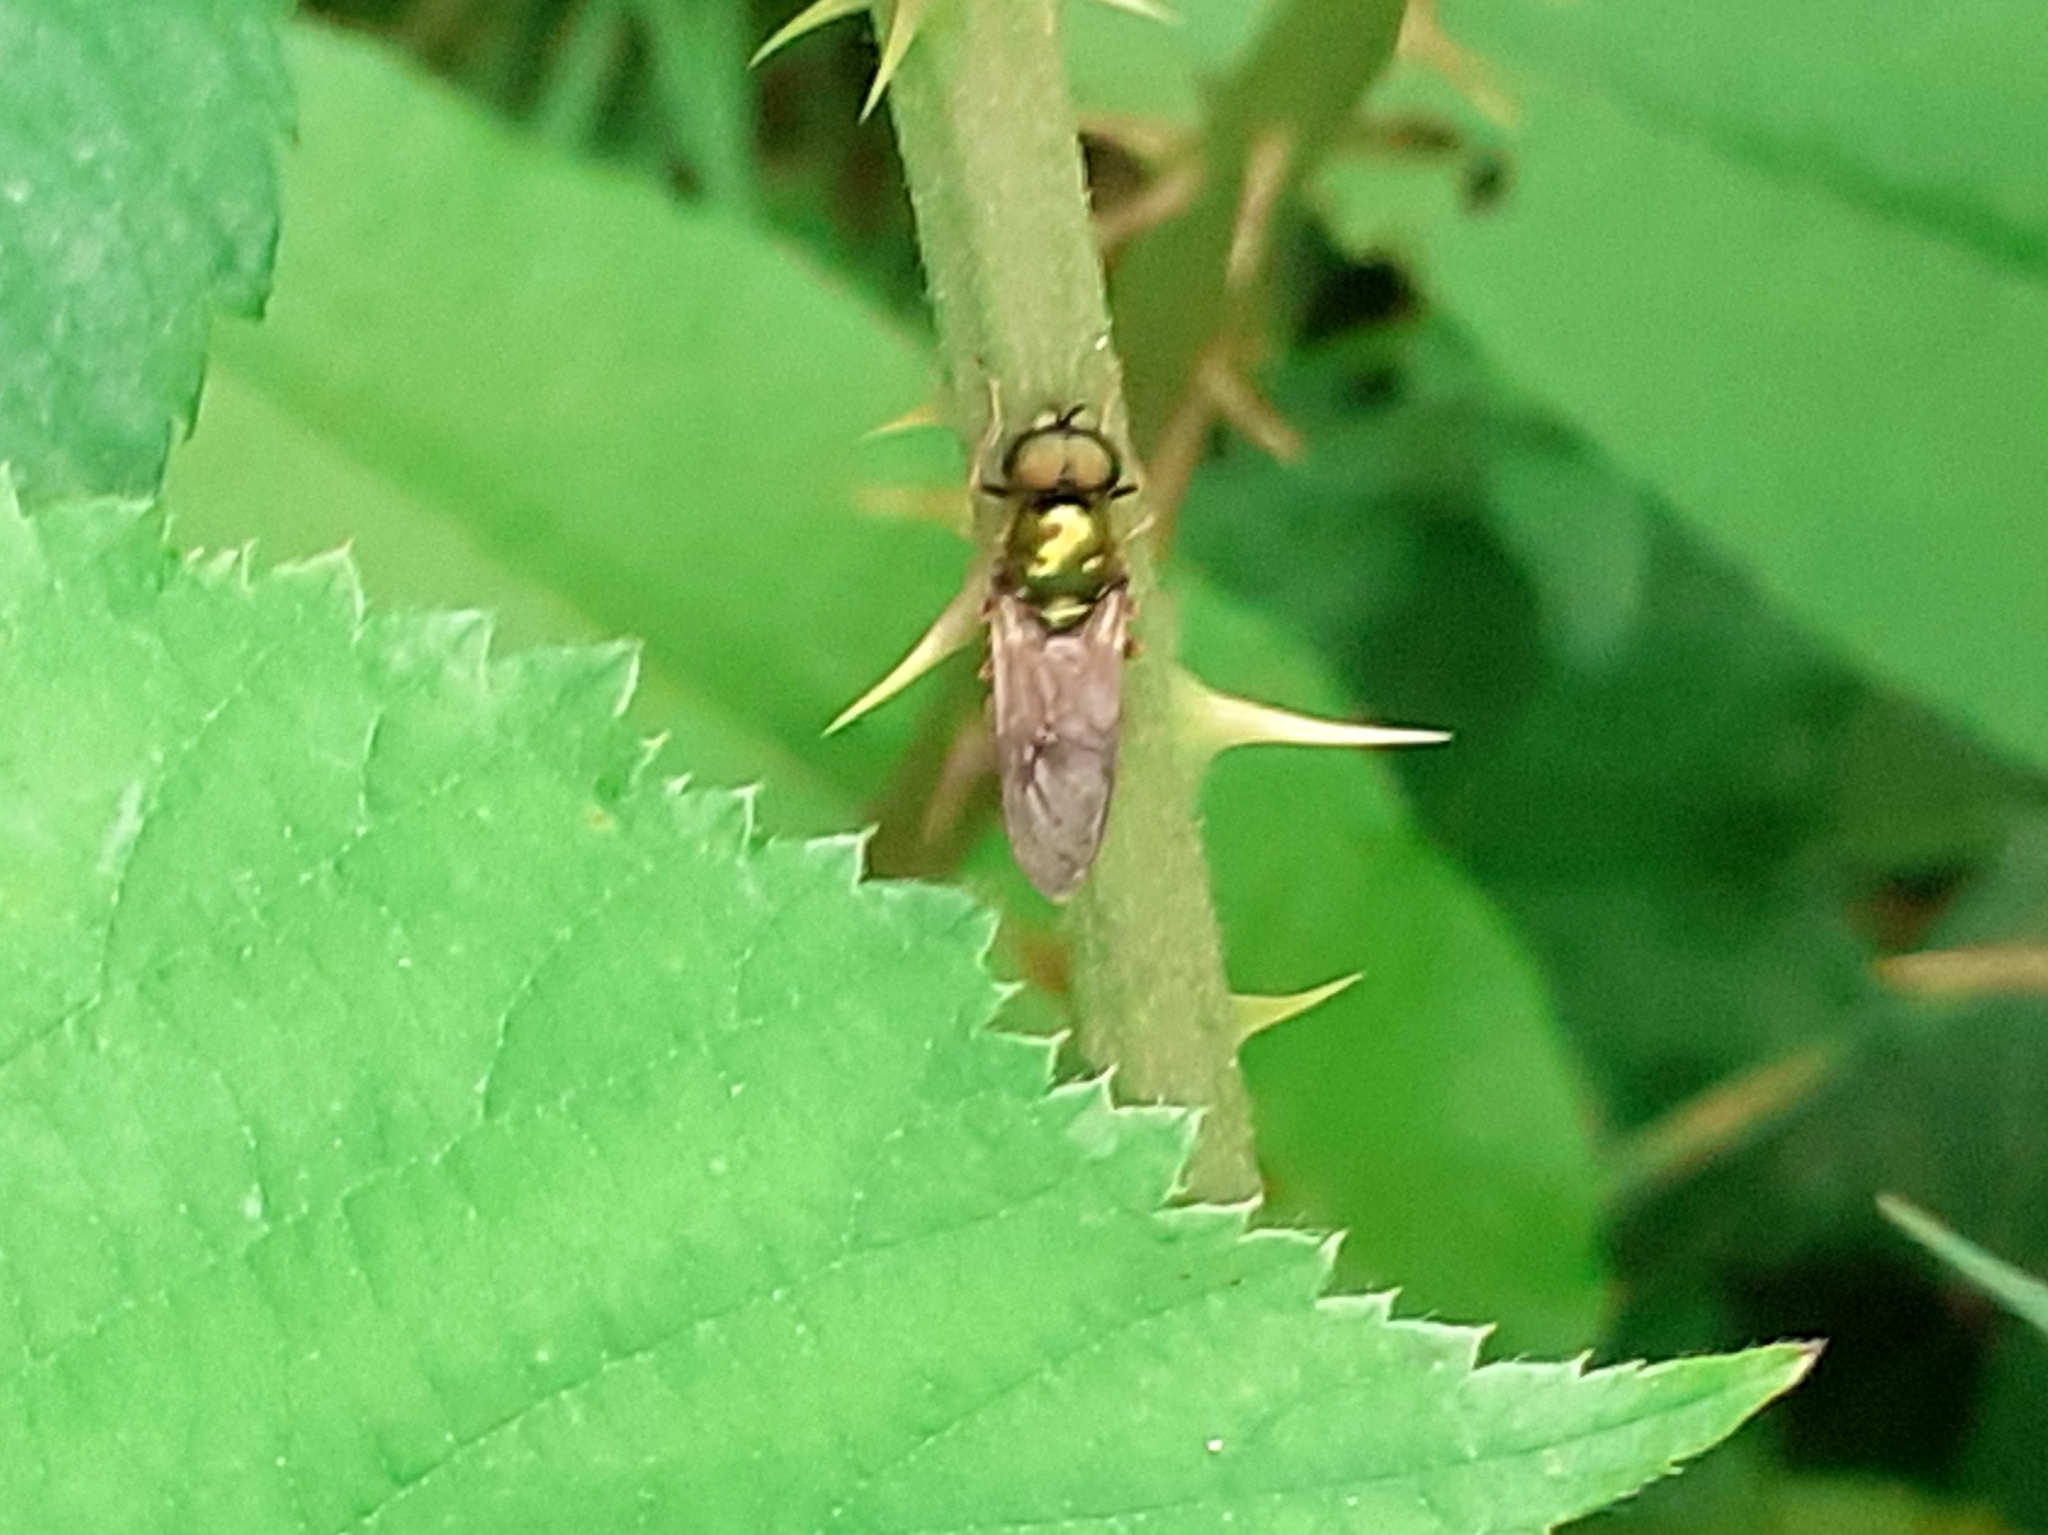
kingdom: Animalia
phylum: Arthropoda
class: Insecta
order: Diptera
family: Stratiomyidae
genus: Chloromyia
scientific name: Chloromyia formosa
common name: Soldier fly
